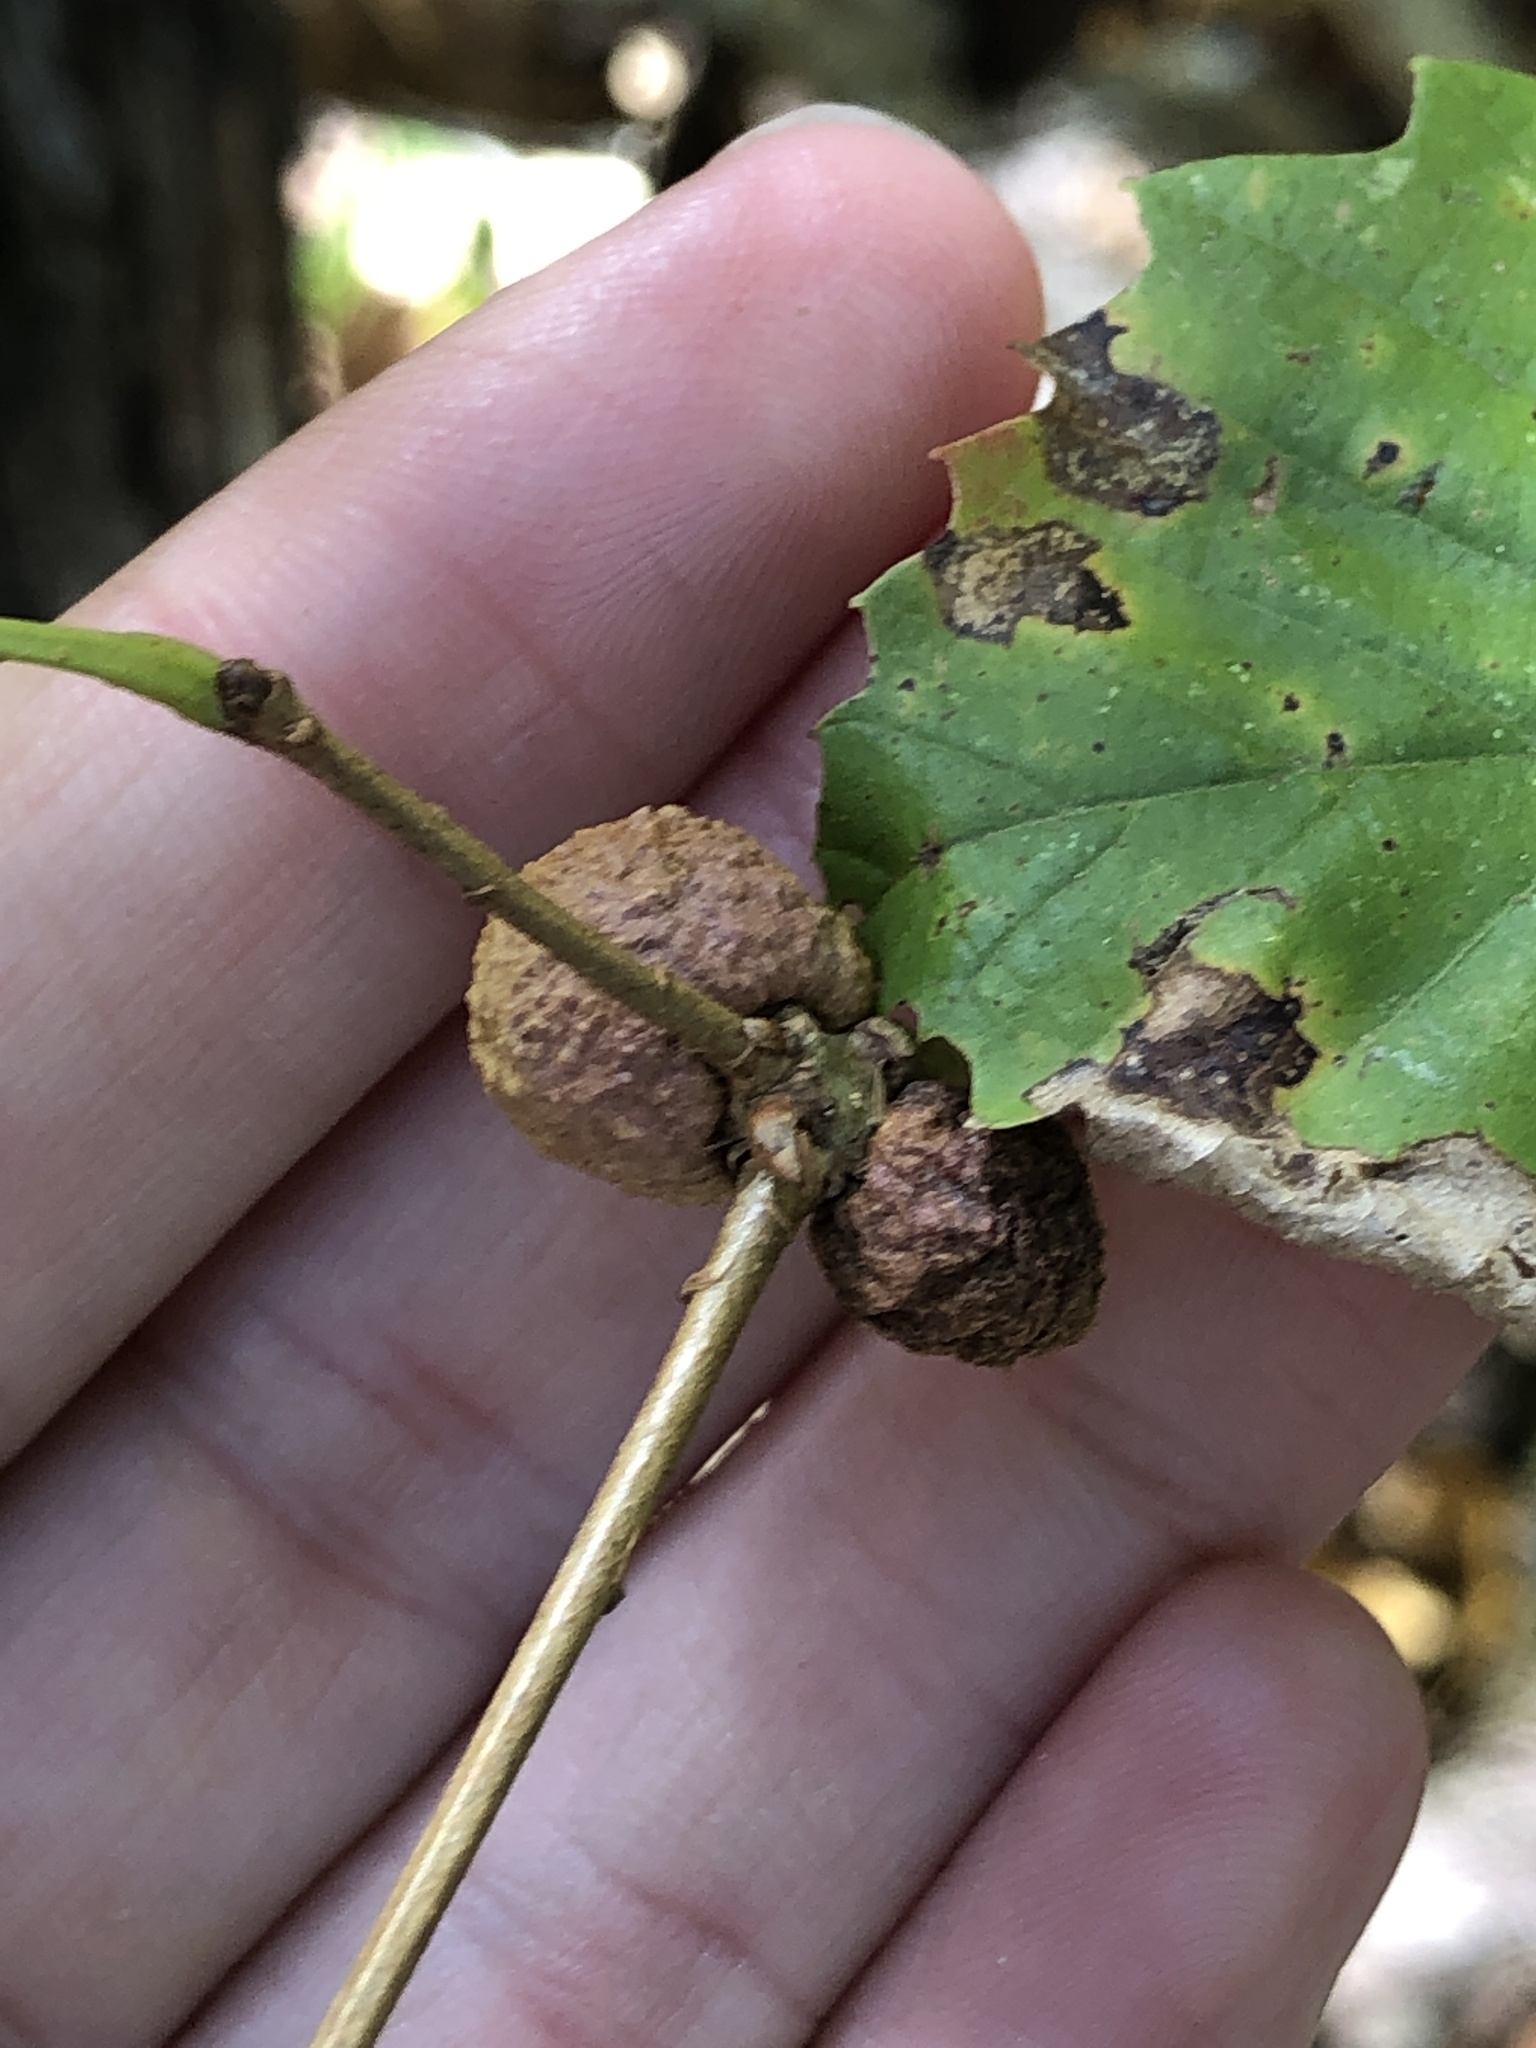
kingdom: Animalia
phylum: Arthropoda
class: Insecta
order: Hymenoptera
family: Cynipidae
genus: Disholcaspis
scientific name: Disholcaspis quercusglobulus
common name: Round bullet gall wasp
